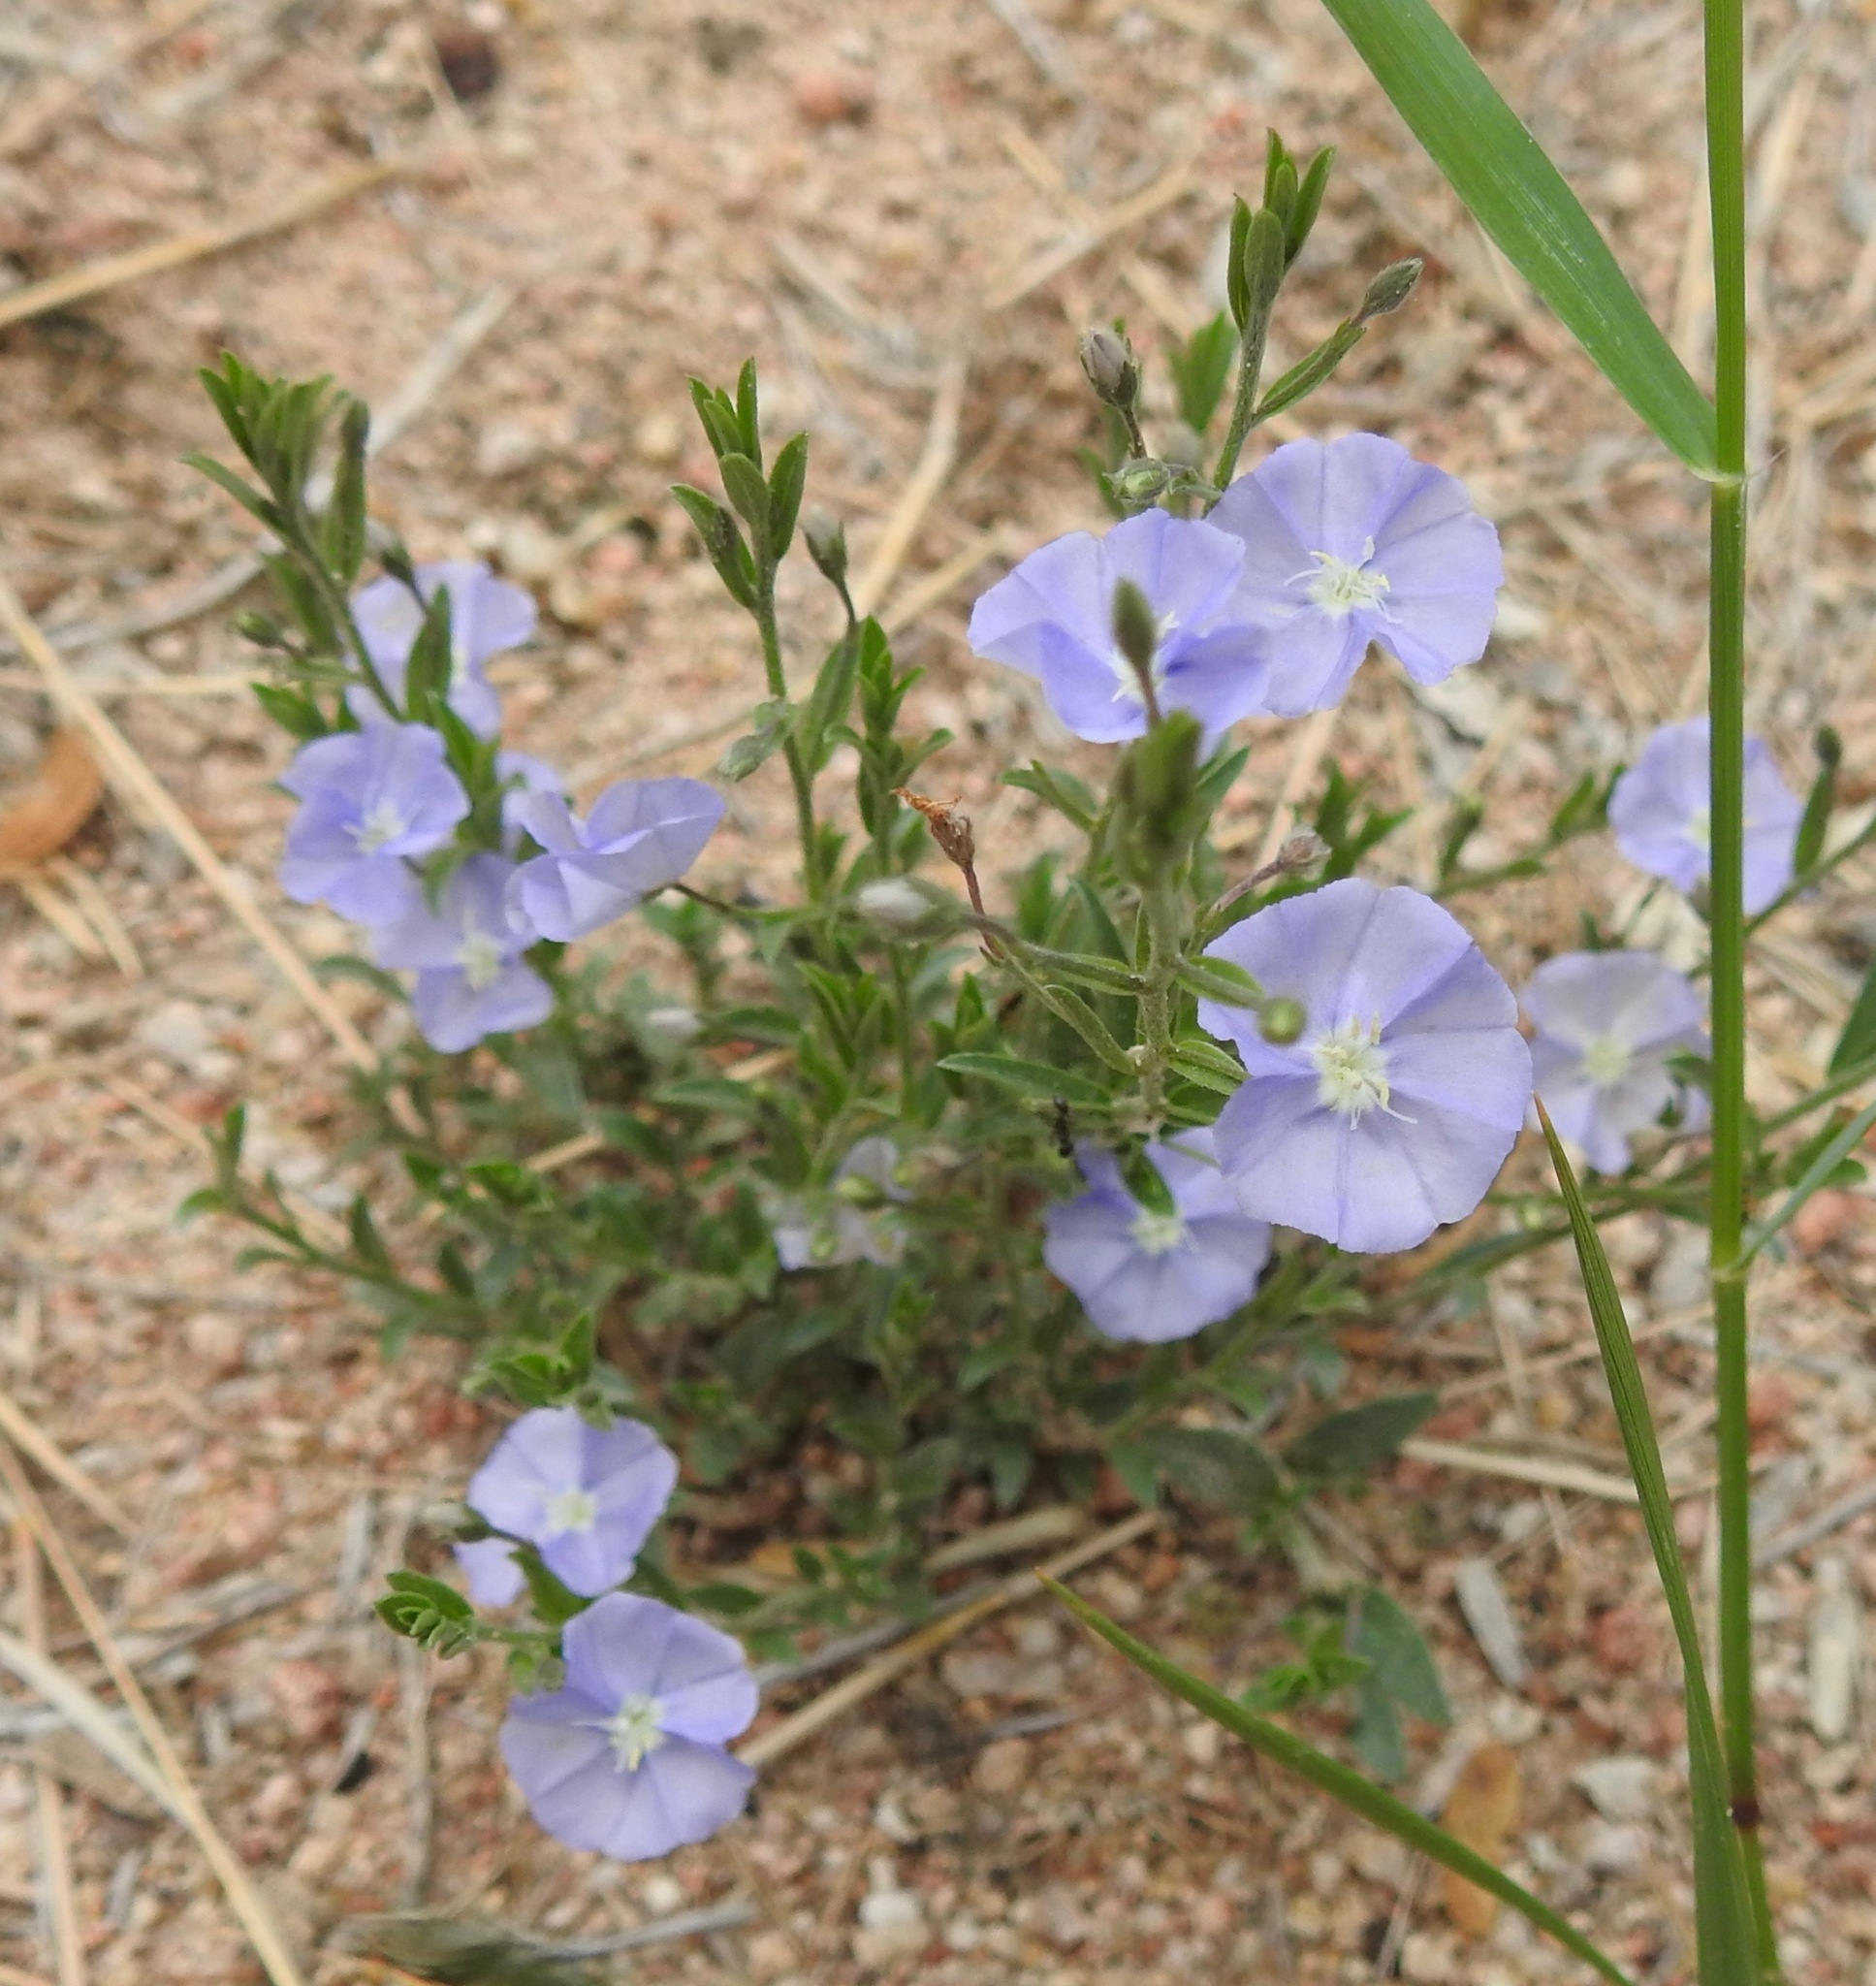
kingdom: Plantae
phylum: Tracheophyta
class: Magnoliopsida
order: Solanales
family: Convolvulaceae
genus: Evolvulus
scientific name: Evolvulus arizonicus
